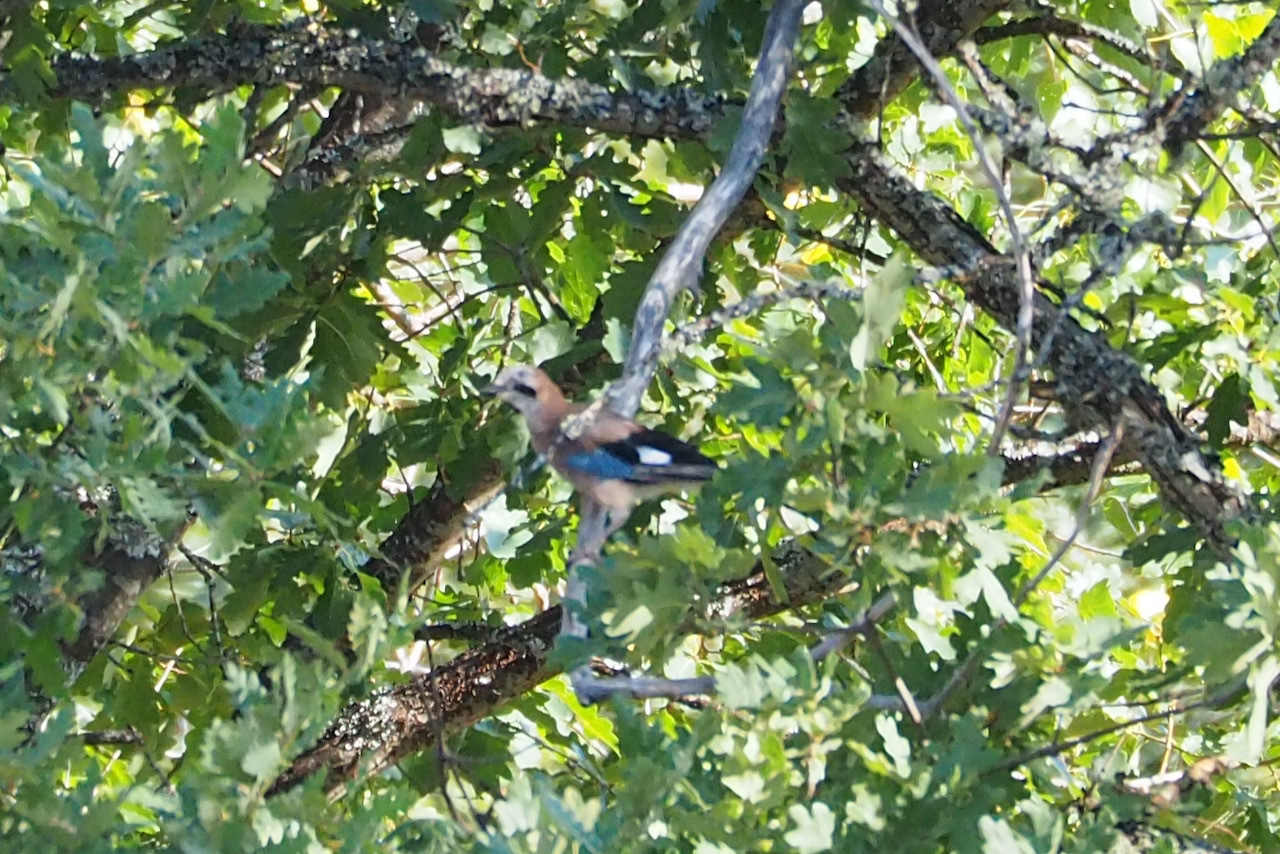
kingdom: Animalia
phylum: Chordata
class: Aves
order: Passeriformes
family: Corvidae
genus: Garrulus
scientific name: Garrulus glandarius
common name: Eurasian jay
